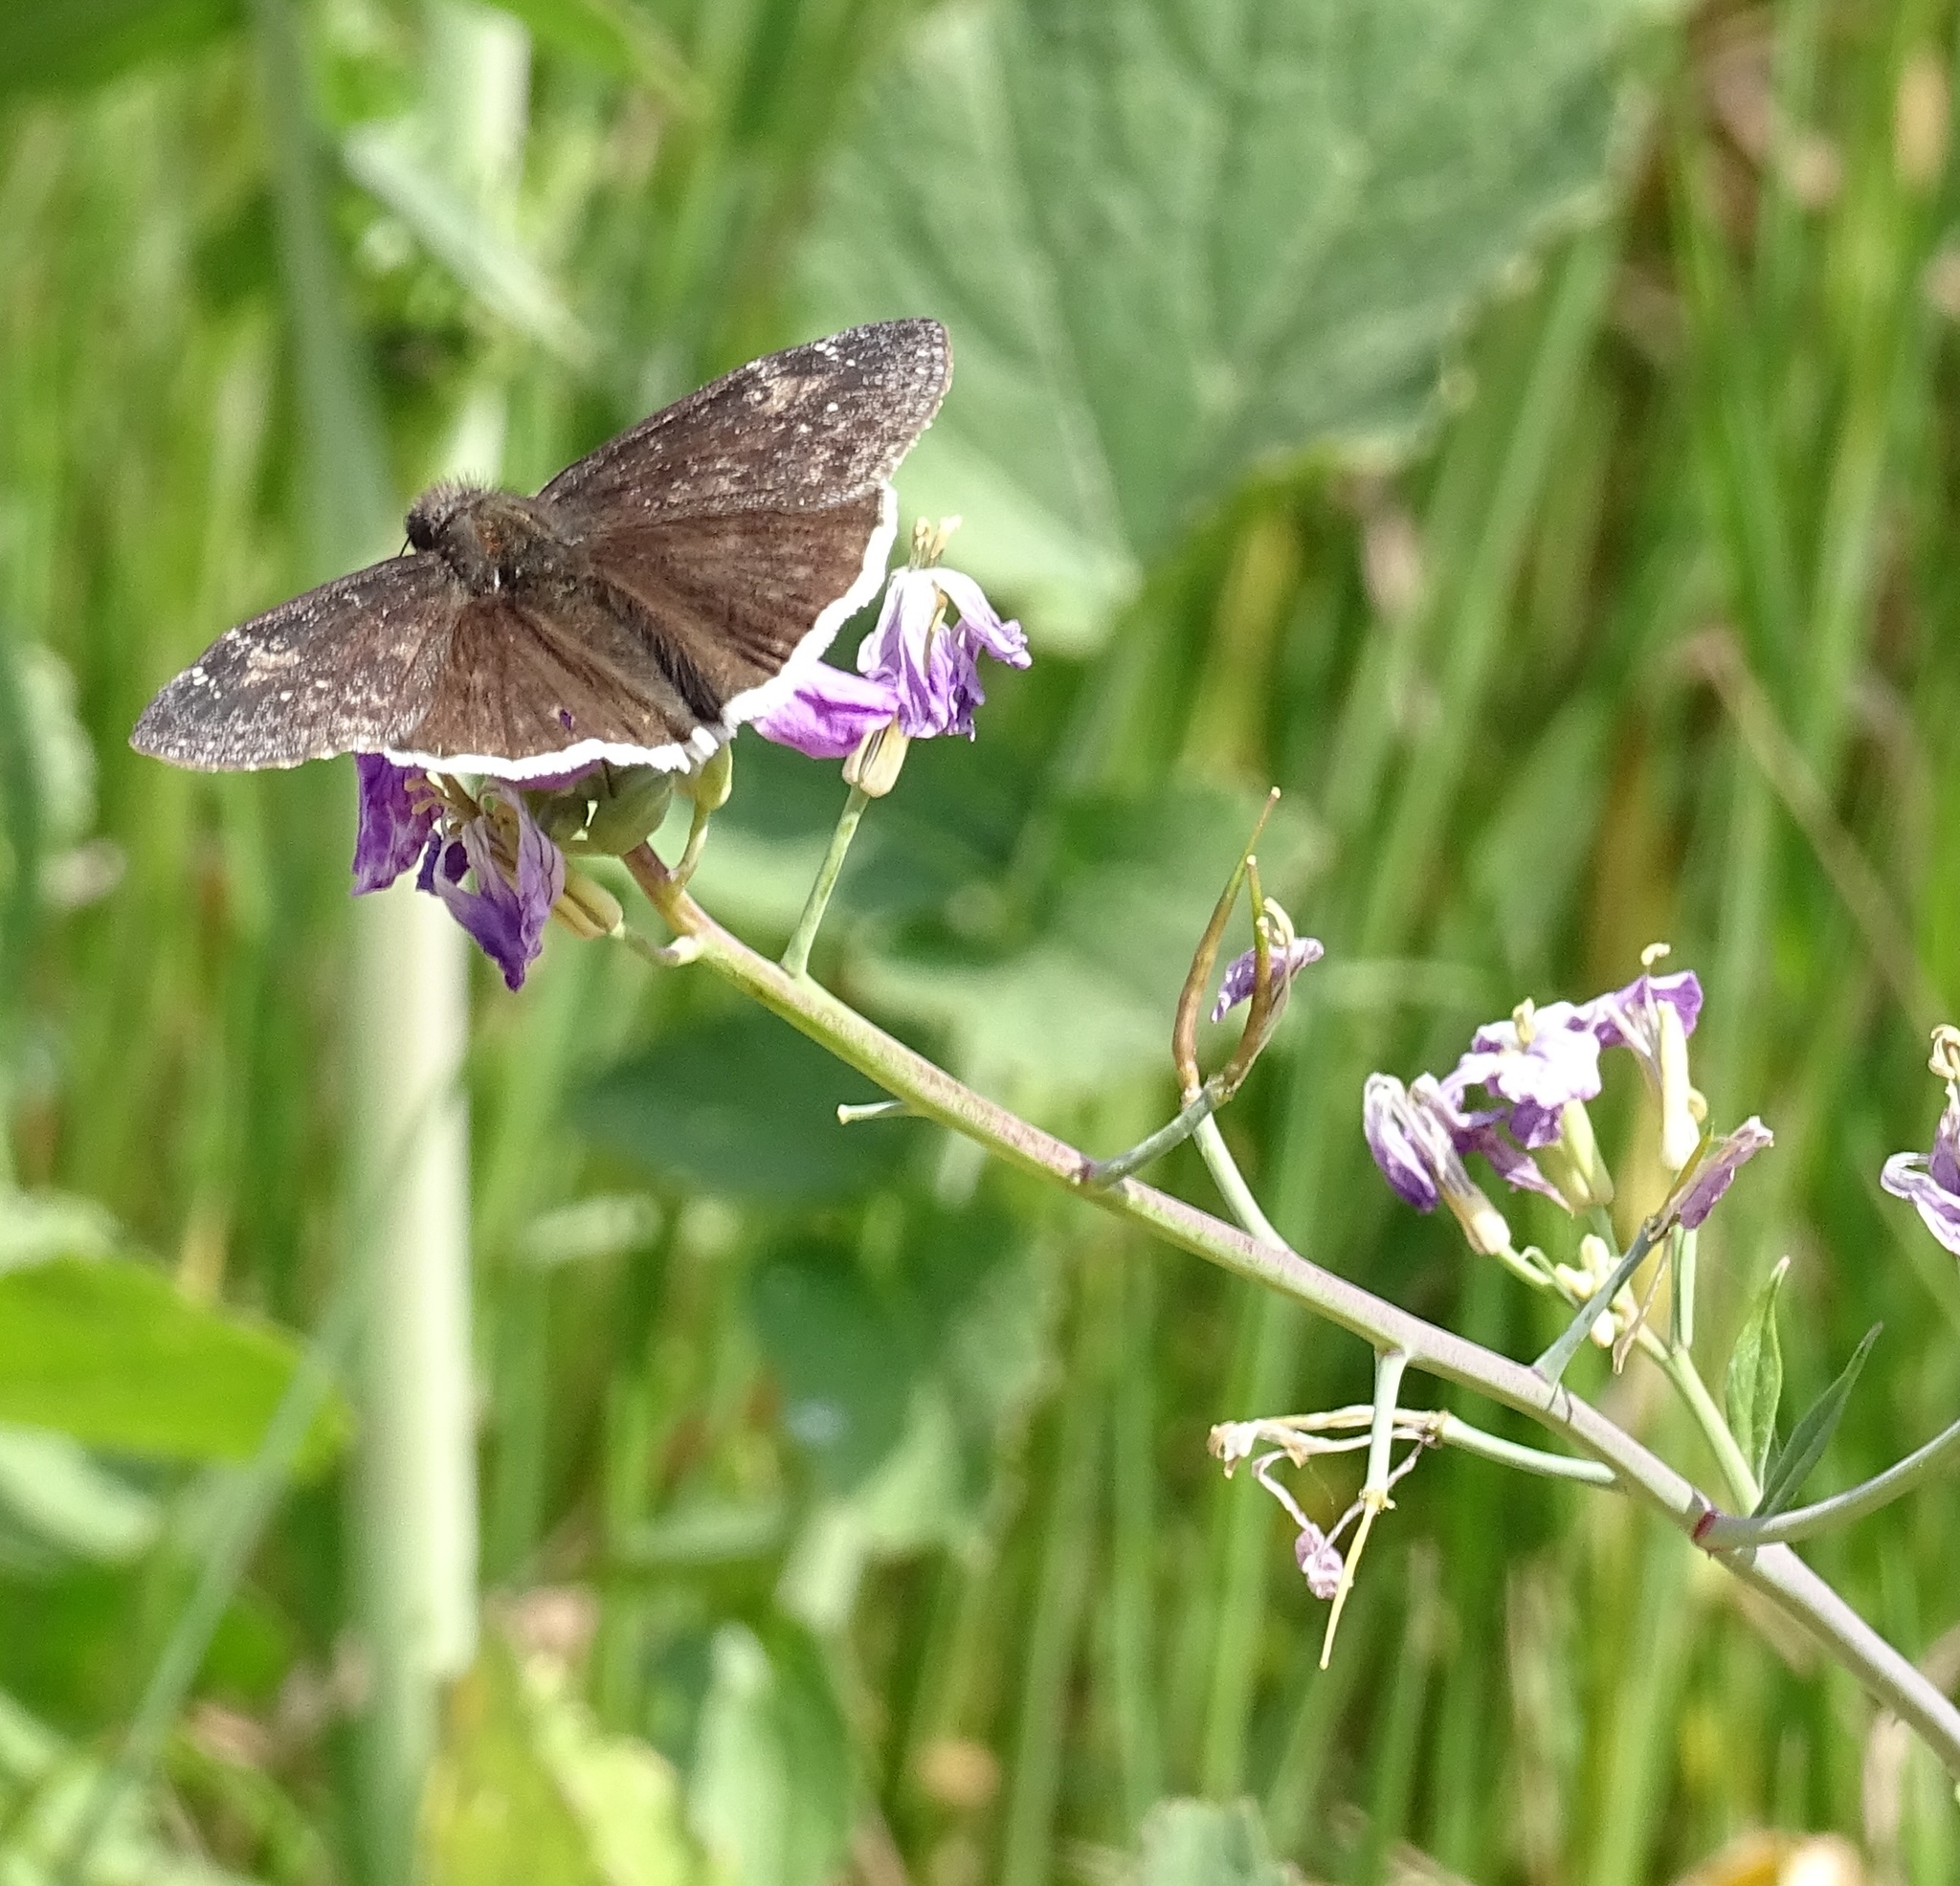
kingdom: Animalia
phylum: Arthropoda
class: Insecta
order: Lepidoptera
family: Hesperiidae
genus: Erynnis
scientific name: Erynnis funeralis
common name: Funereal duskywing
